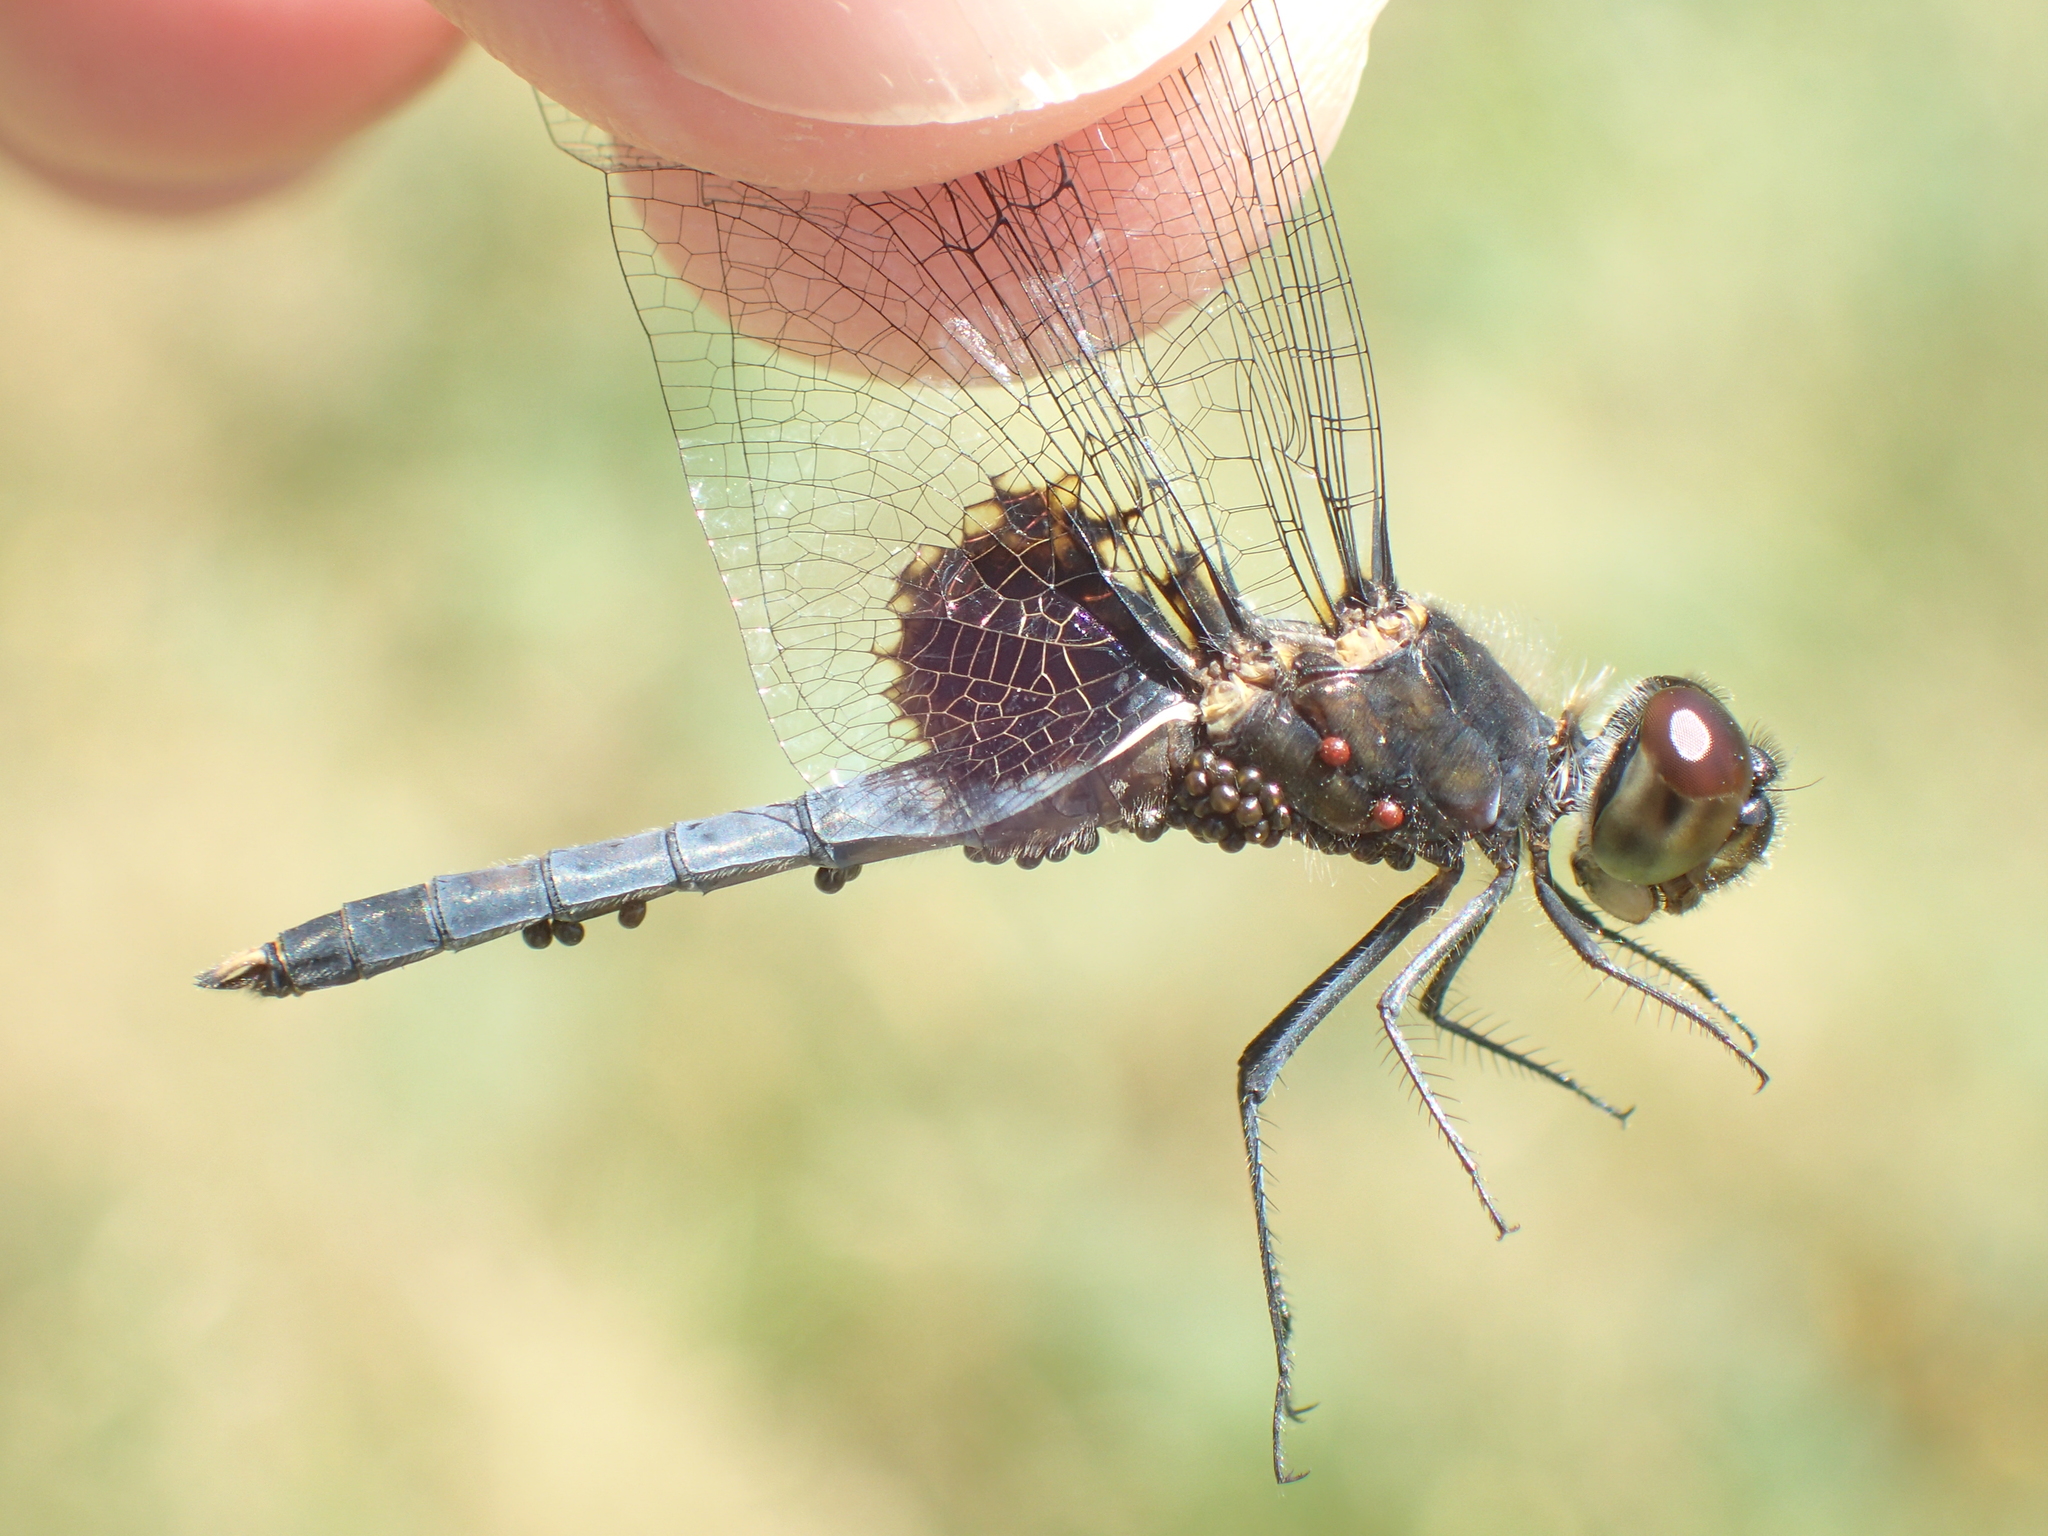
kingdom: Animalia
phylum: Arthropoda
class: Insecta
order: Odonata
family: Libellulidae
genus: Celithemis
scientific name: Celithemis martha
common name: Martha's pennant
